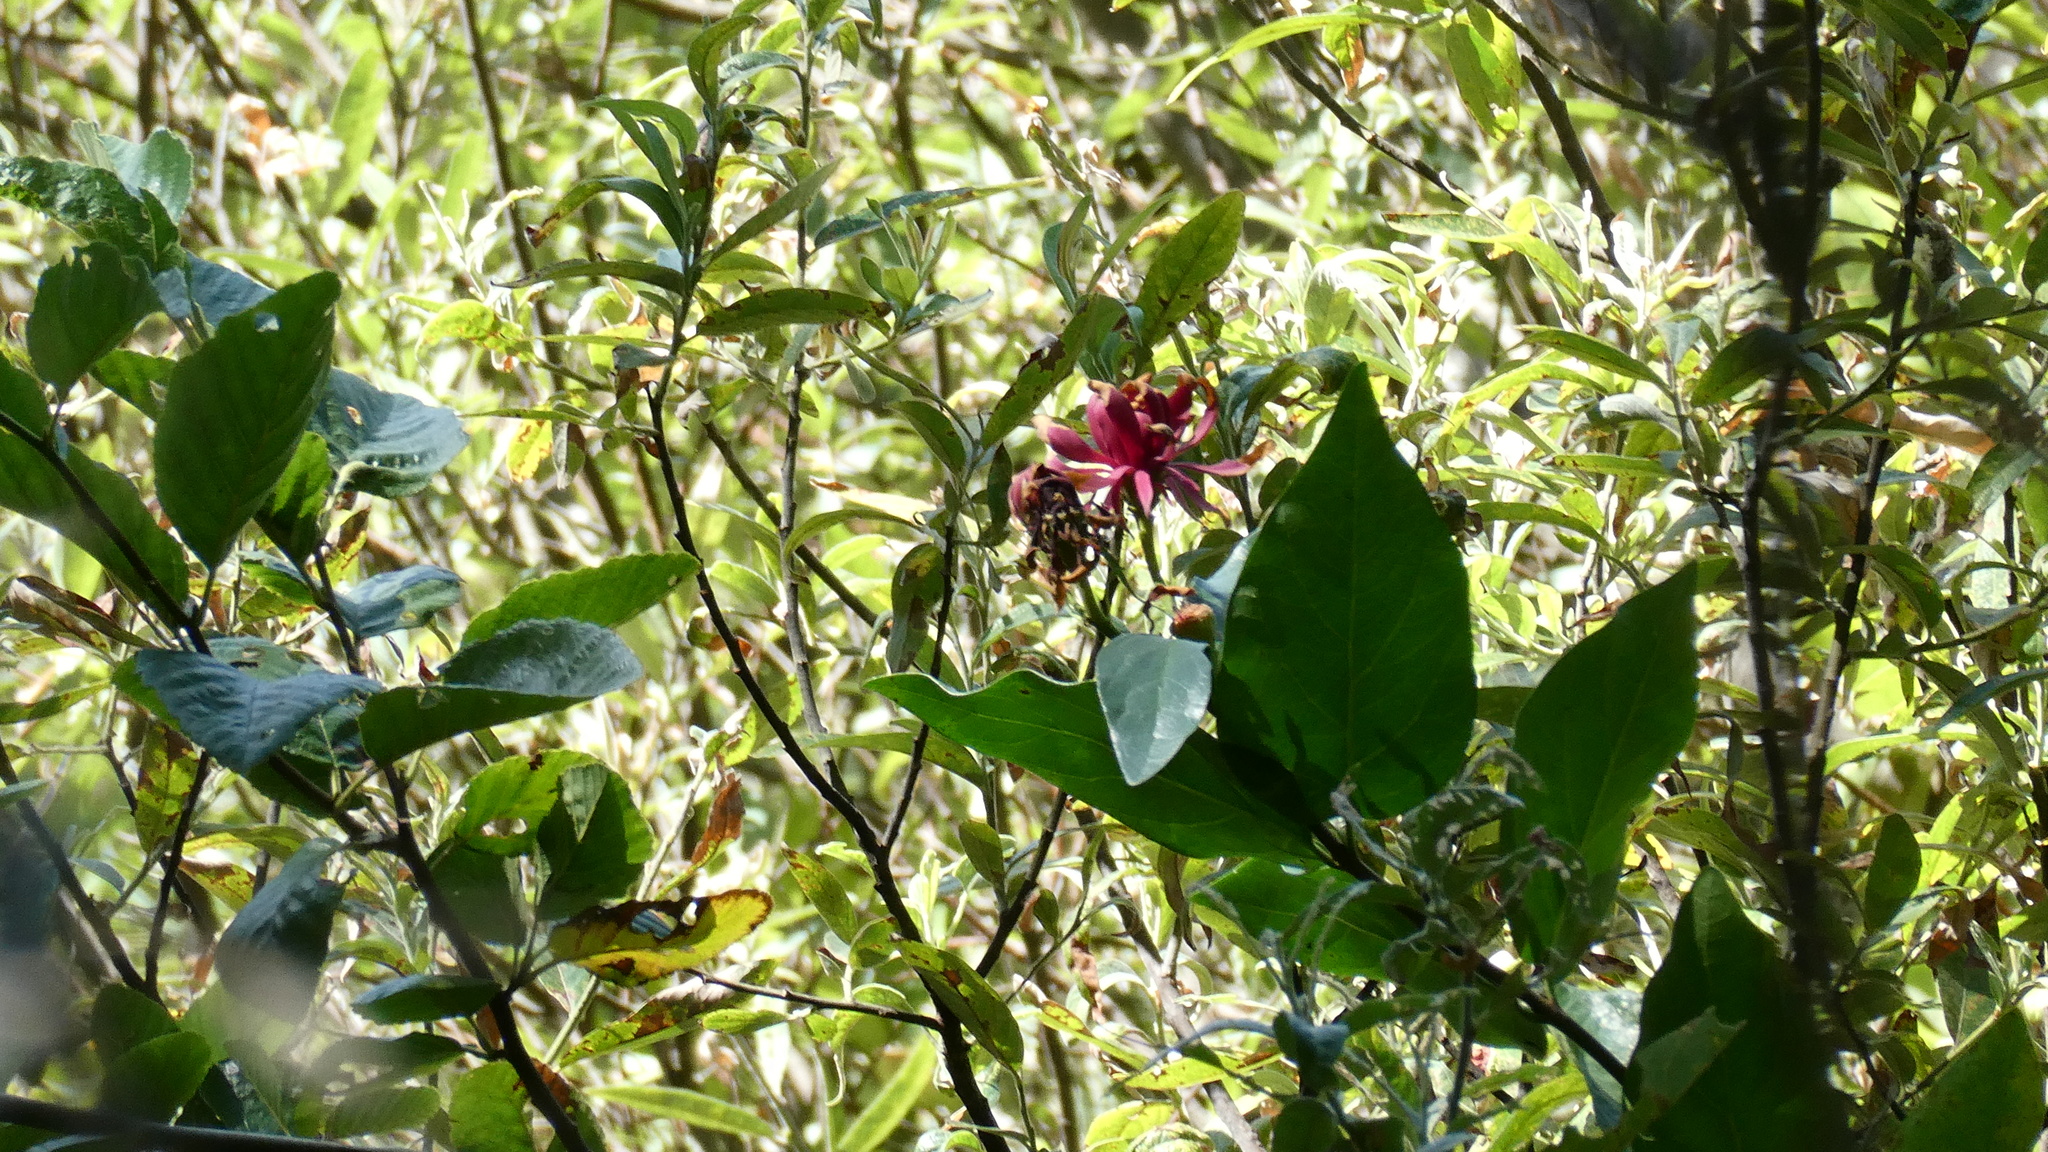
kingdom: Plantae
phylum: Tracheophyta
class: Magnoliopsida
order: Laurales
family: Calycanthaceae
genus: Calycanthus
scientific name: Calycanthus occidentalis
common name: California spicebush
